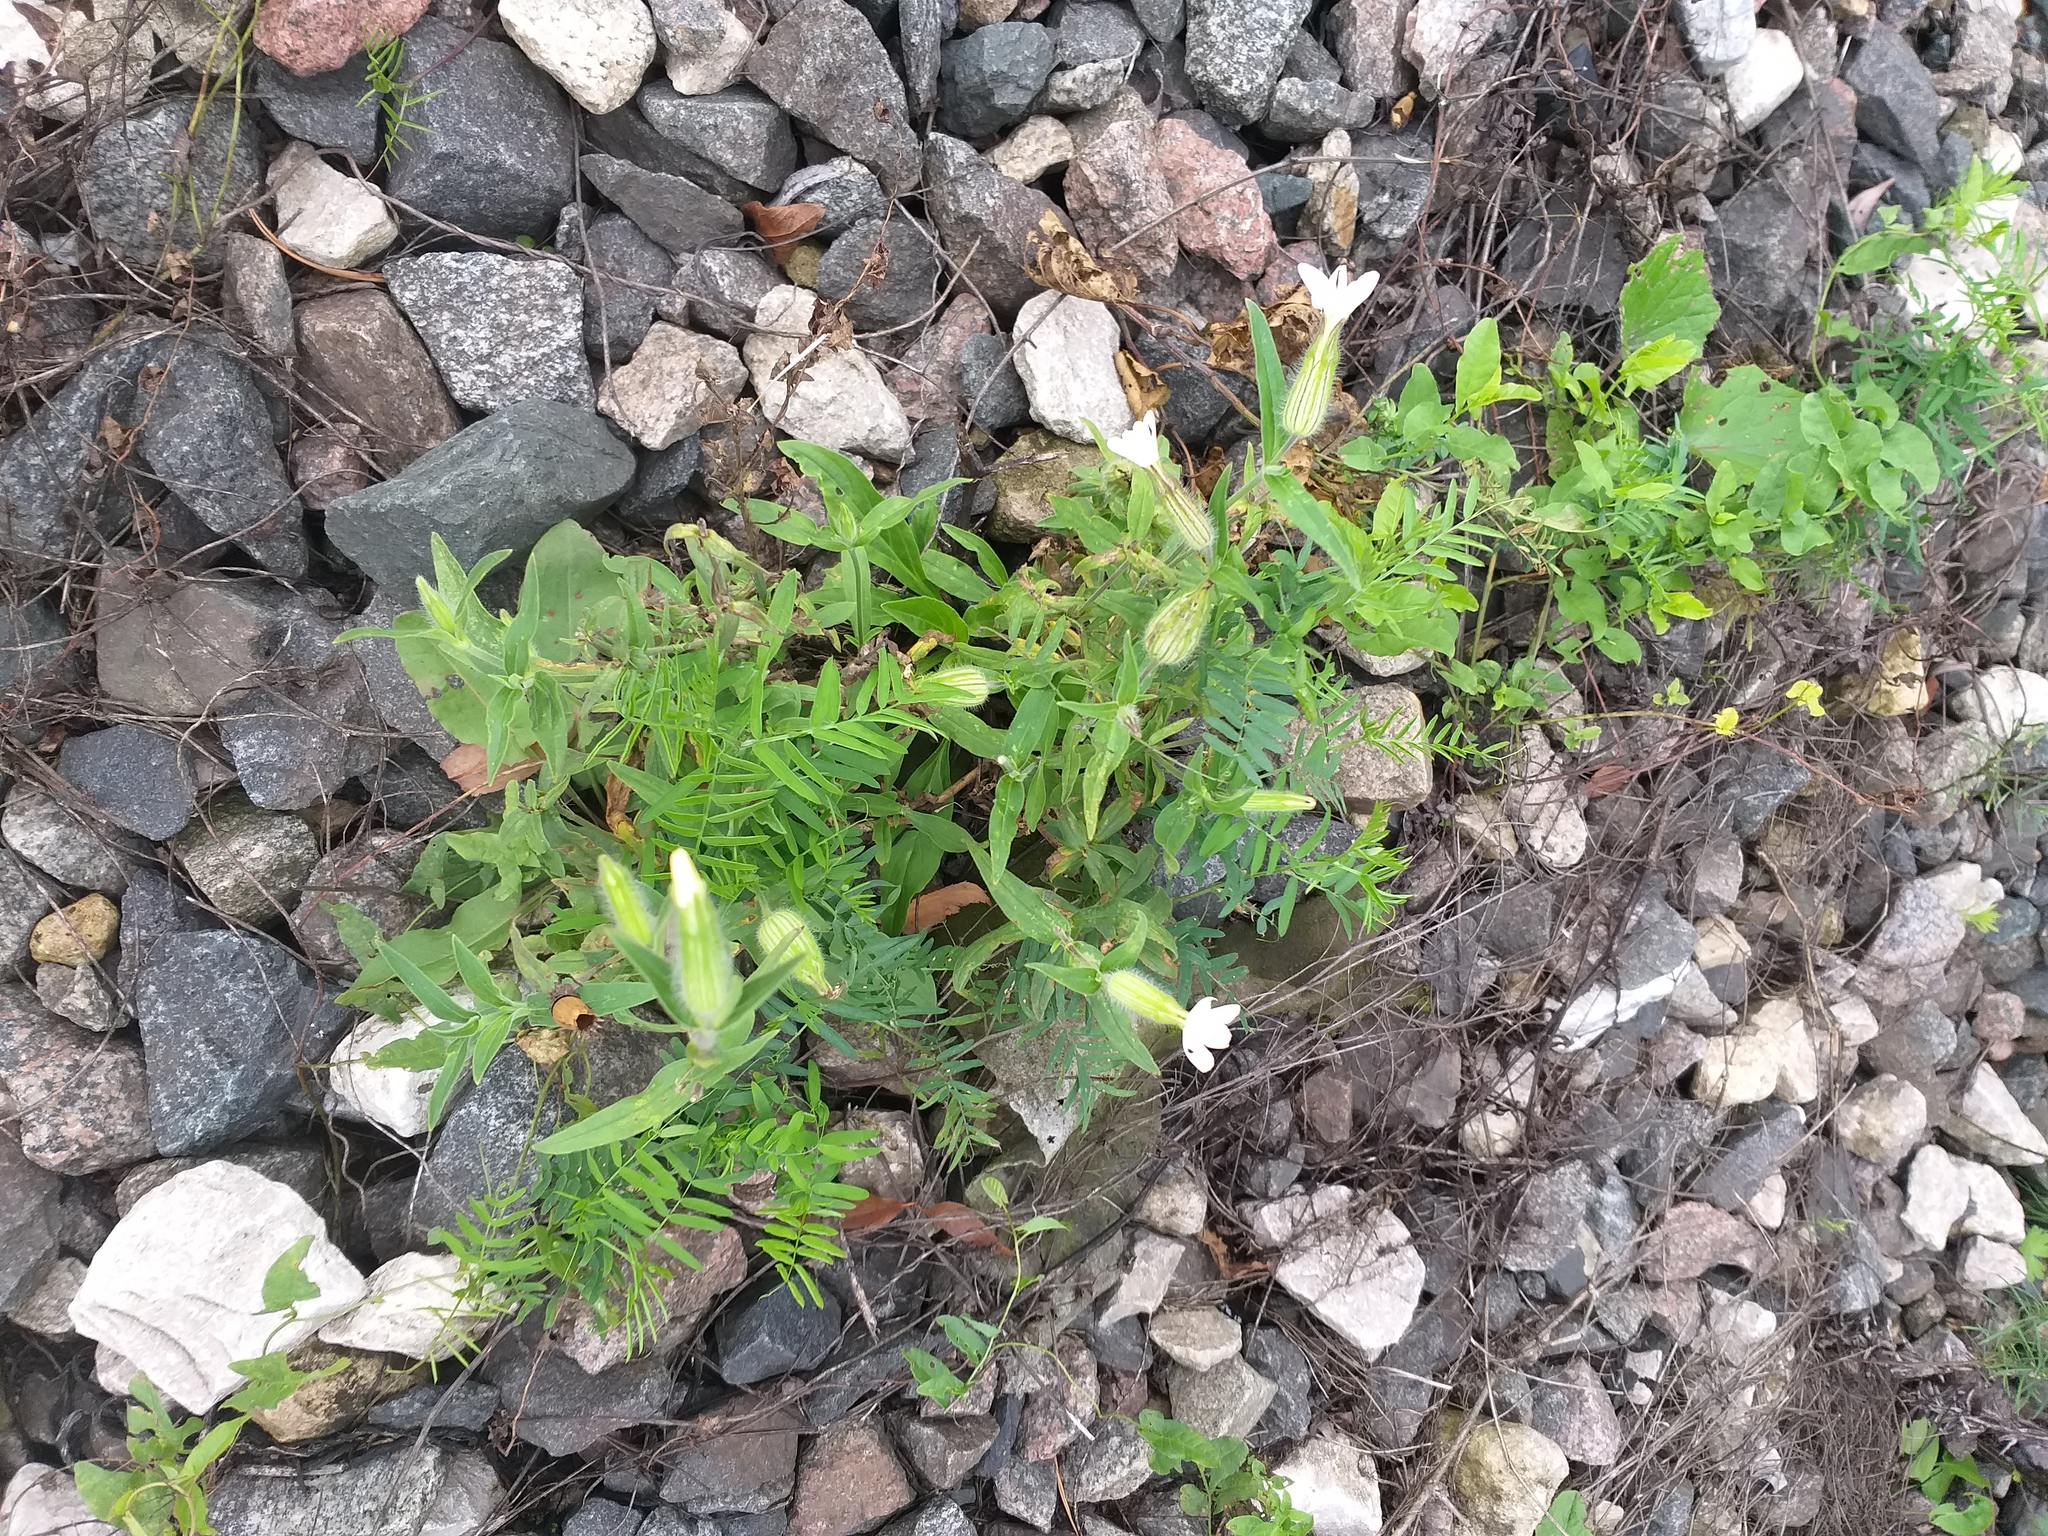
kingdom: Plantae
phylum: Tracheophyta
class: Magnoliopsida
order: Caryophyllales
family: Caryophyllaceae
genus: Silene
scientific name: Silene latifolia
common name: White campion
